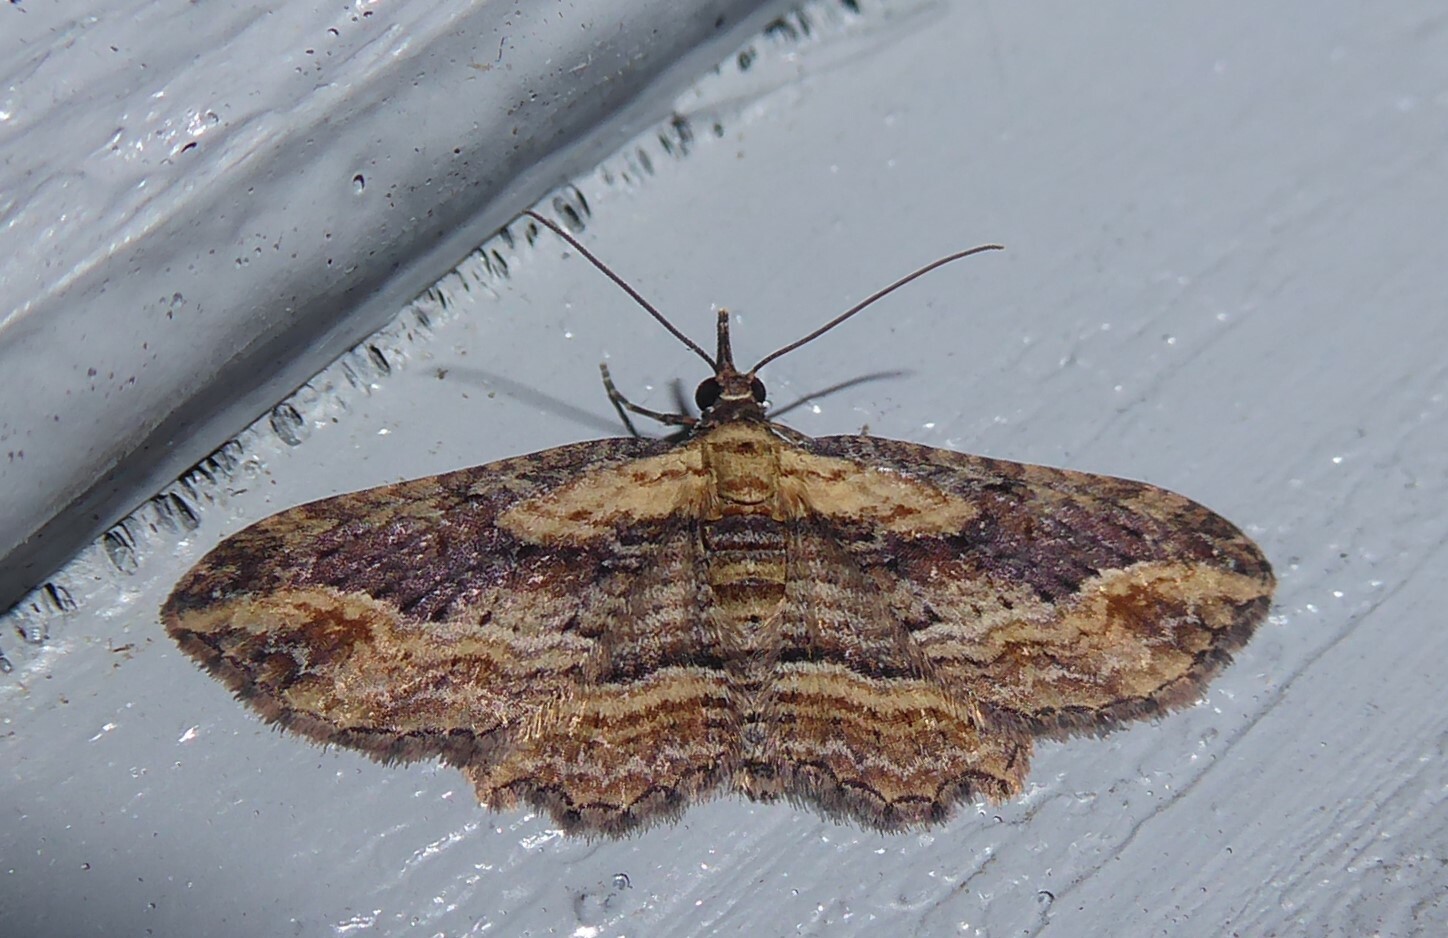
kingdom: Animalia
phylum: Arthropoda
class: Insecta
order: Lepidoptera
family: Geometridae
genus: Chloroclystis
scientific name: Chloroclystis filata
